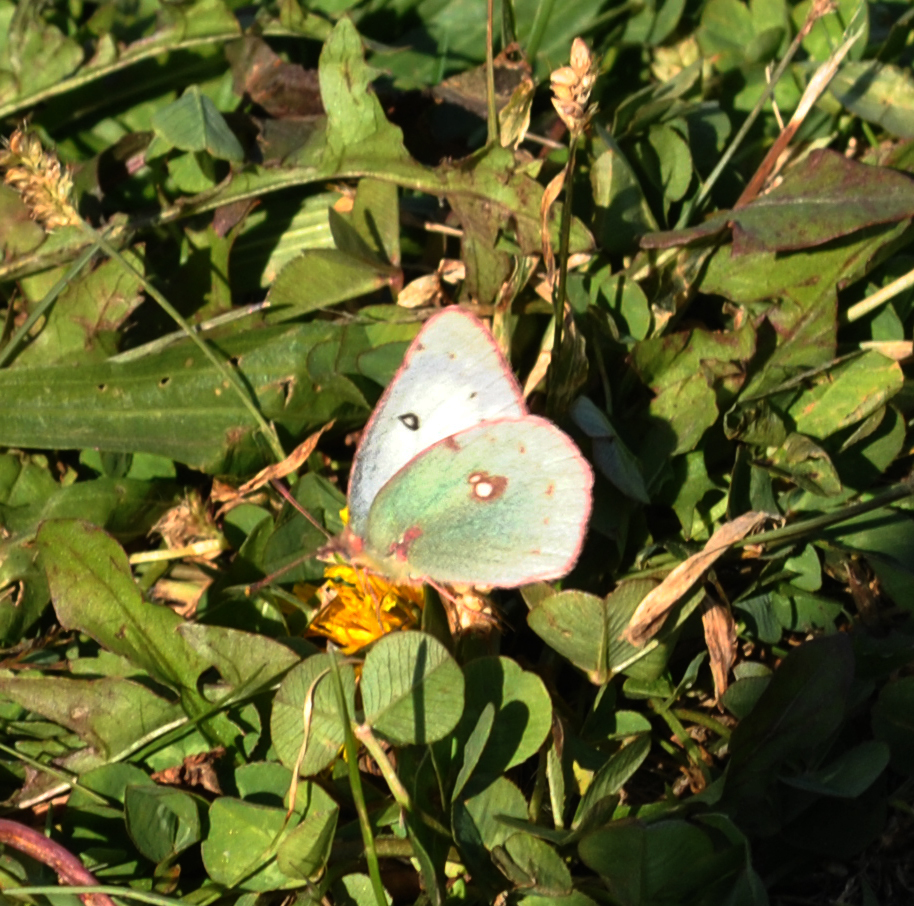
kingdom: Animalia
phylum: Arthropoda
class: Insecta
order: Lepidoptera
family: Pieridae
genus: Colias
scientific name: Colias philodice
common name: Clouded sulphur
